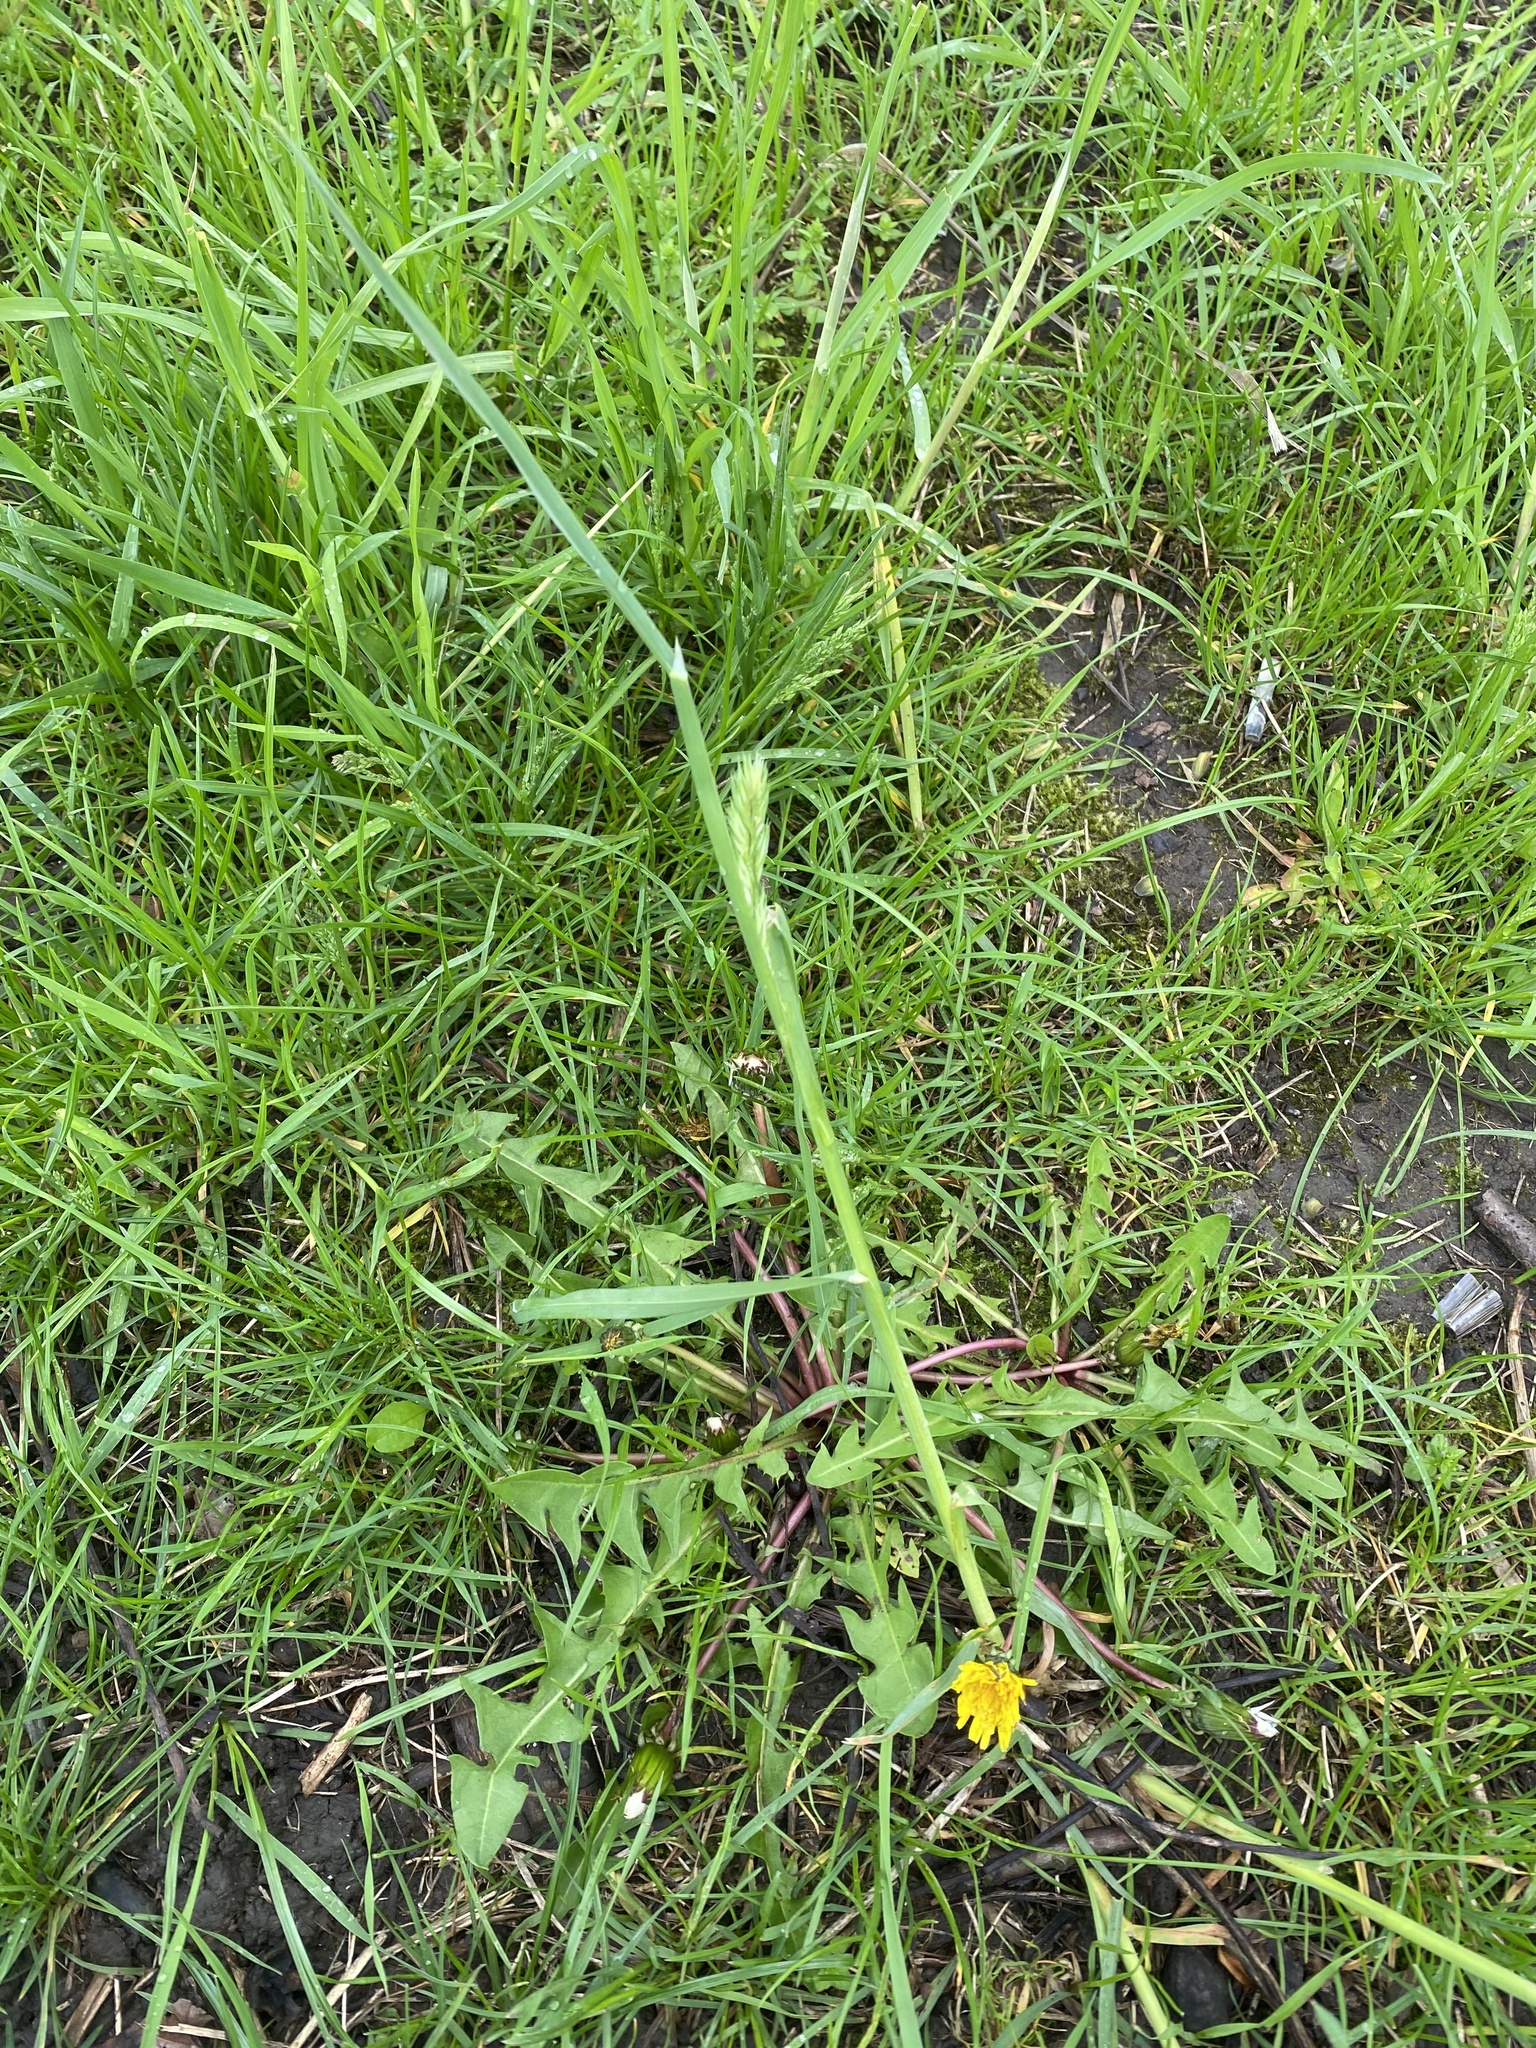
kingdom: Plantae
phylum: Tracheophyta
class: Liliopsida
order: Poales
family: Poaceae
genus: Dactylis
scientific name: Dactylis glomerata
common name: Orchardgrass
